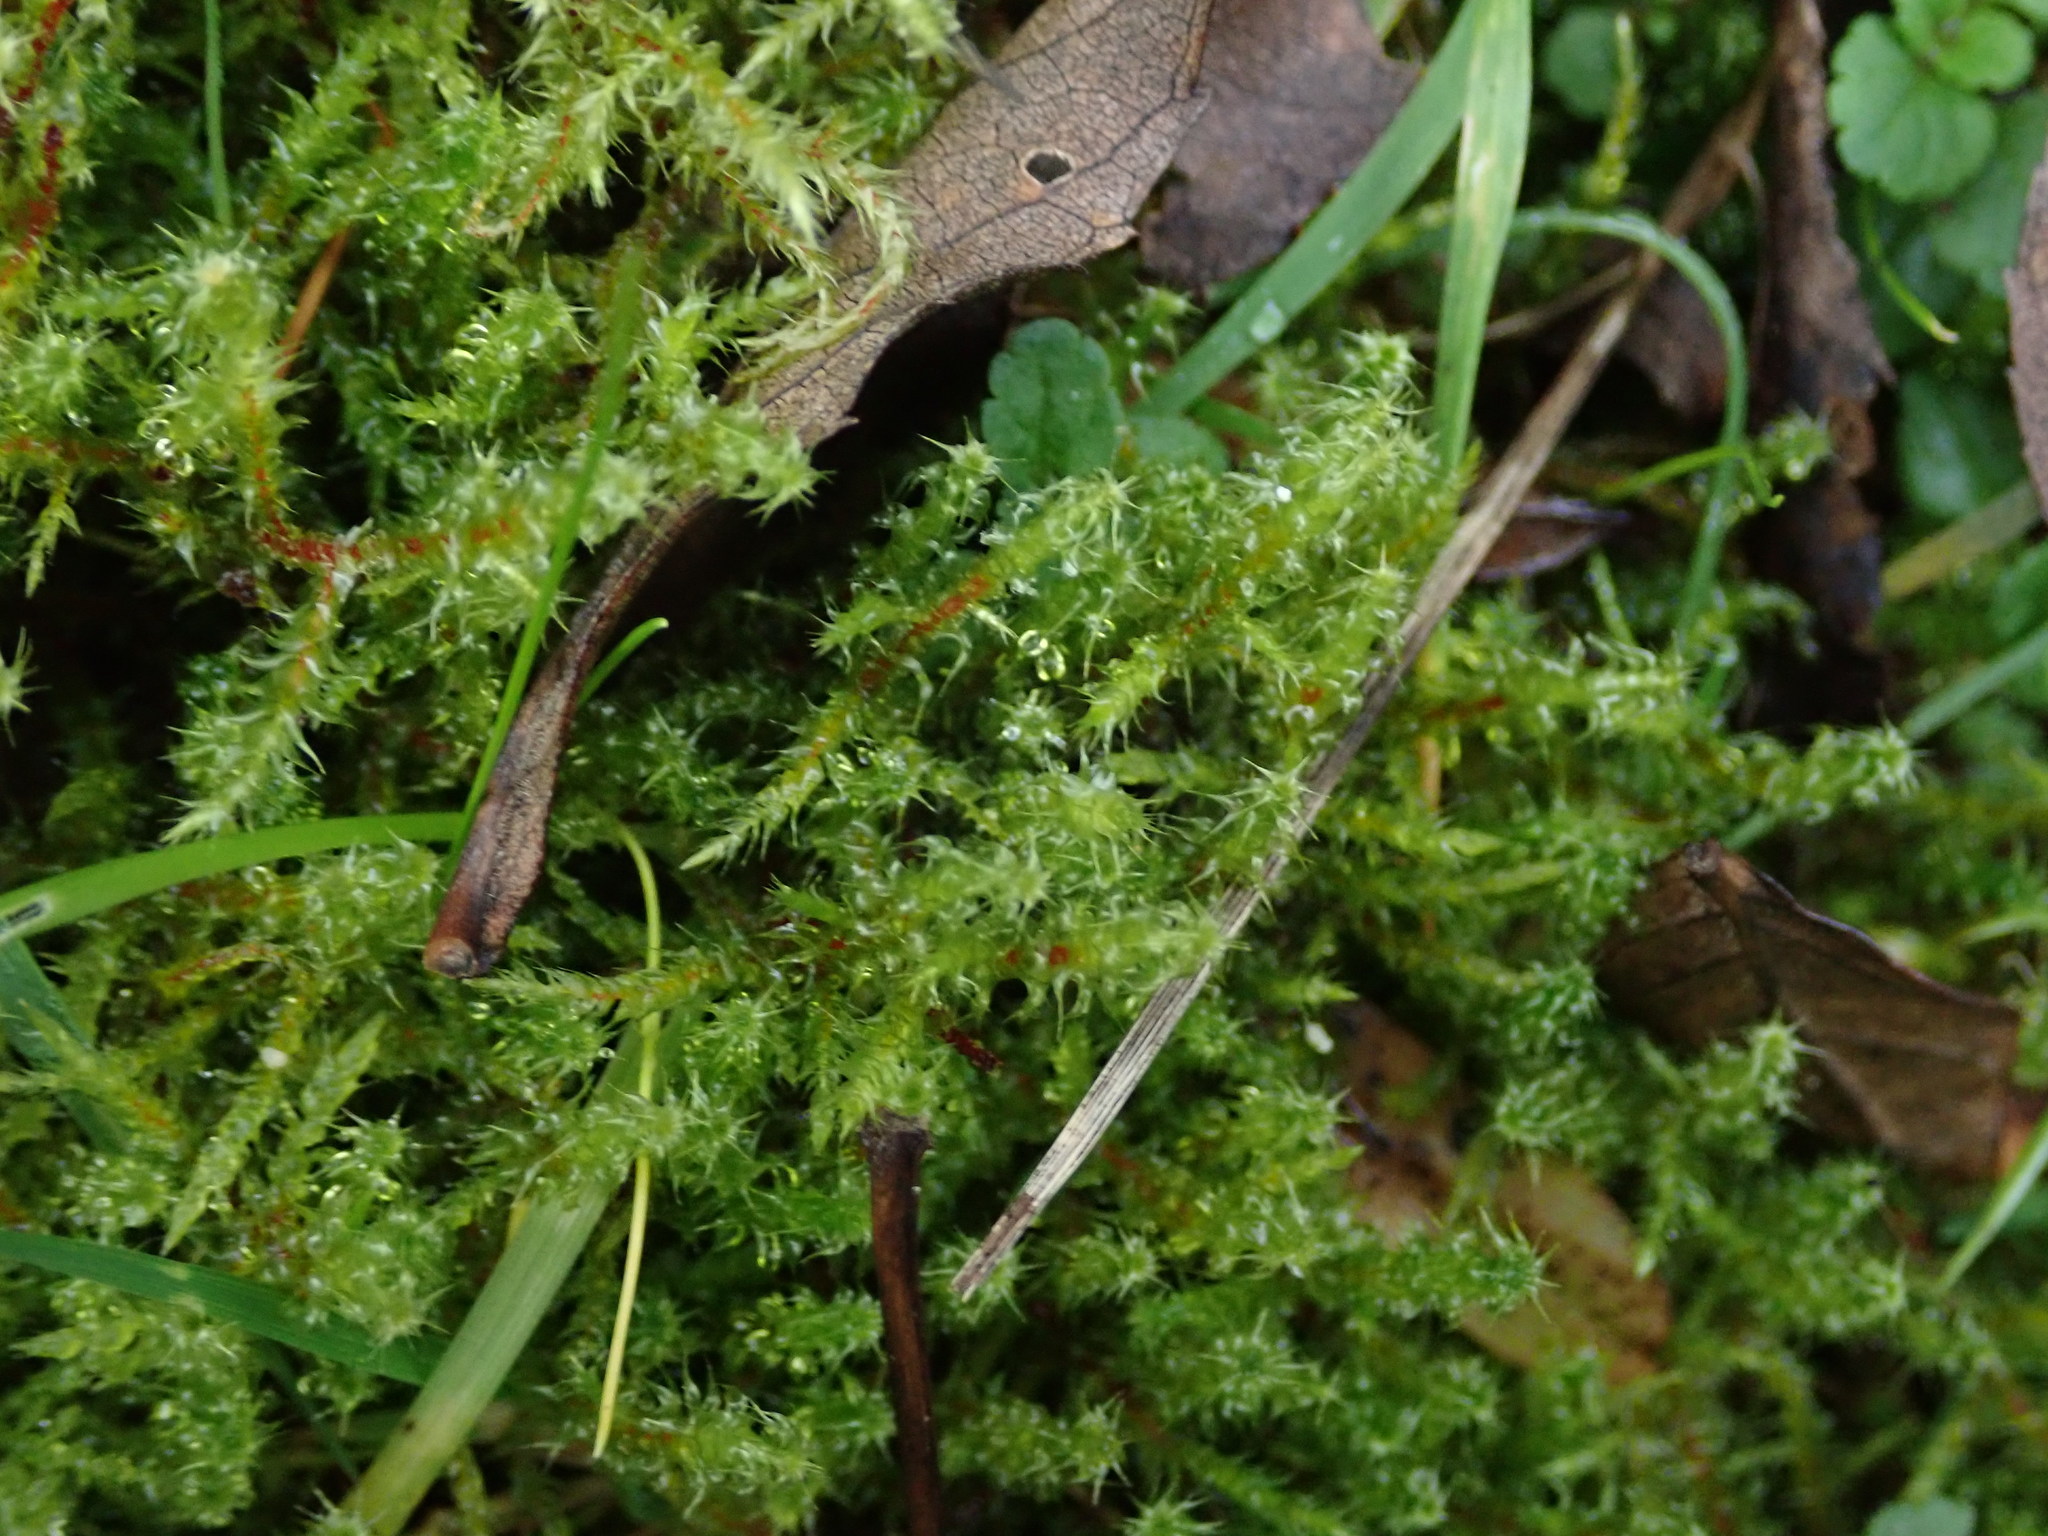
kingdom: Plantae
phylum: Bryophyta
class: Bryopsida
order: Hypnales
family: Hylocomiaceae
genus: Rhytidiadelphus
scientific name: Rhytidiadelphus squarrosus
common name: Springy turf-moss
